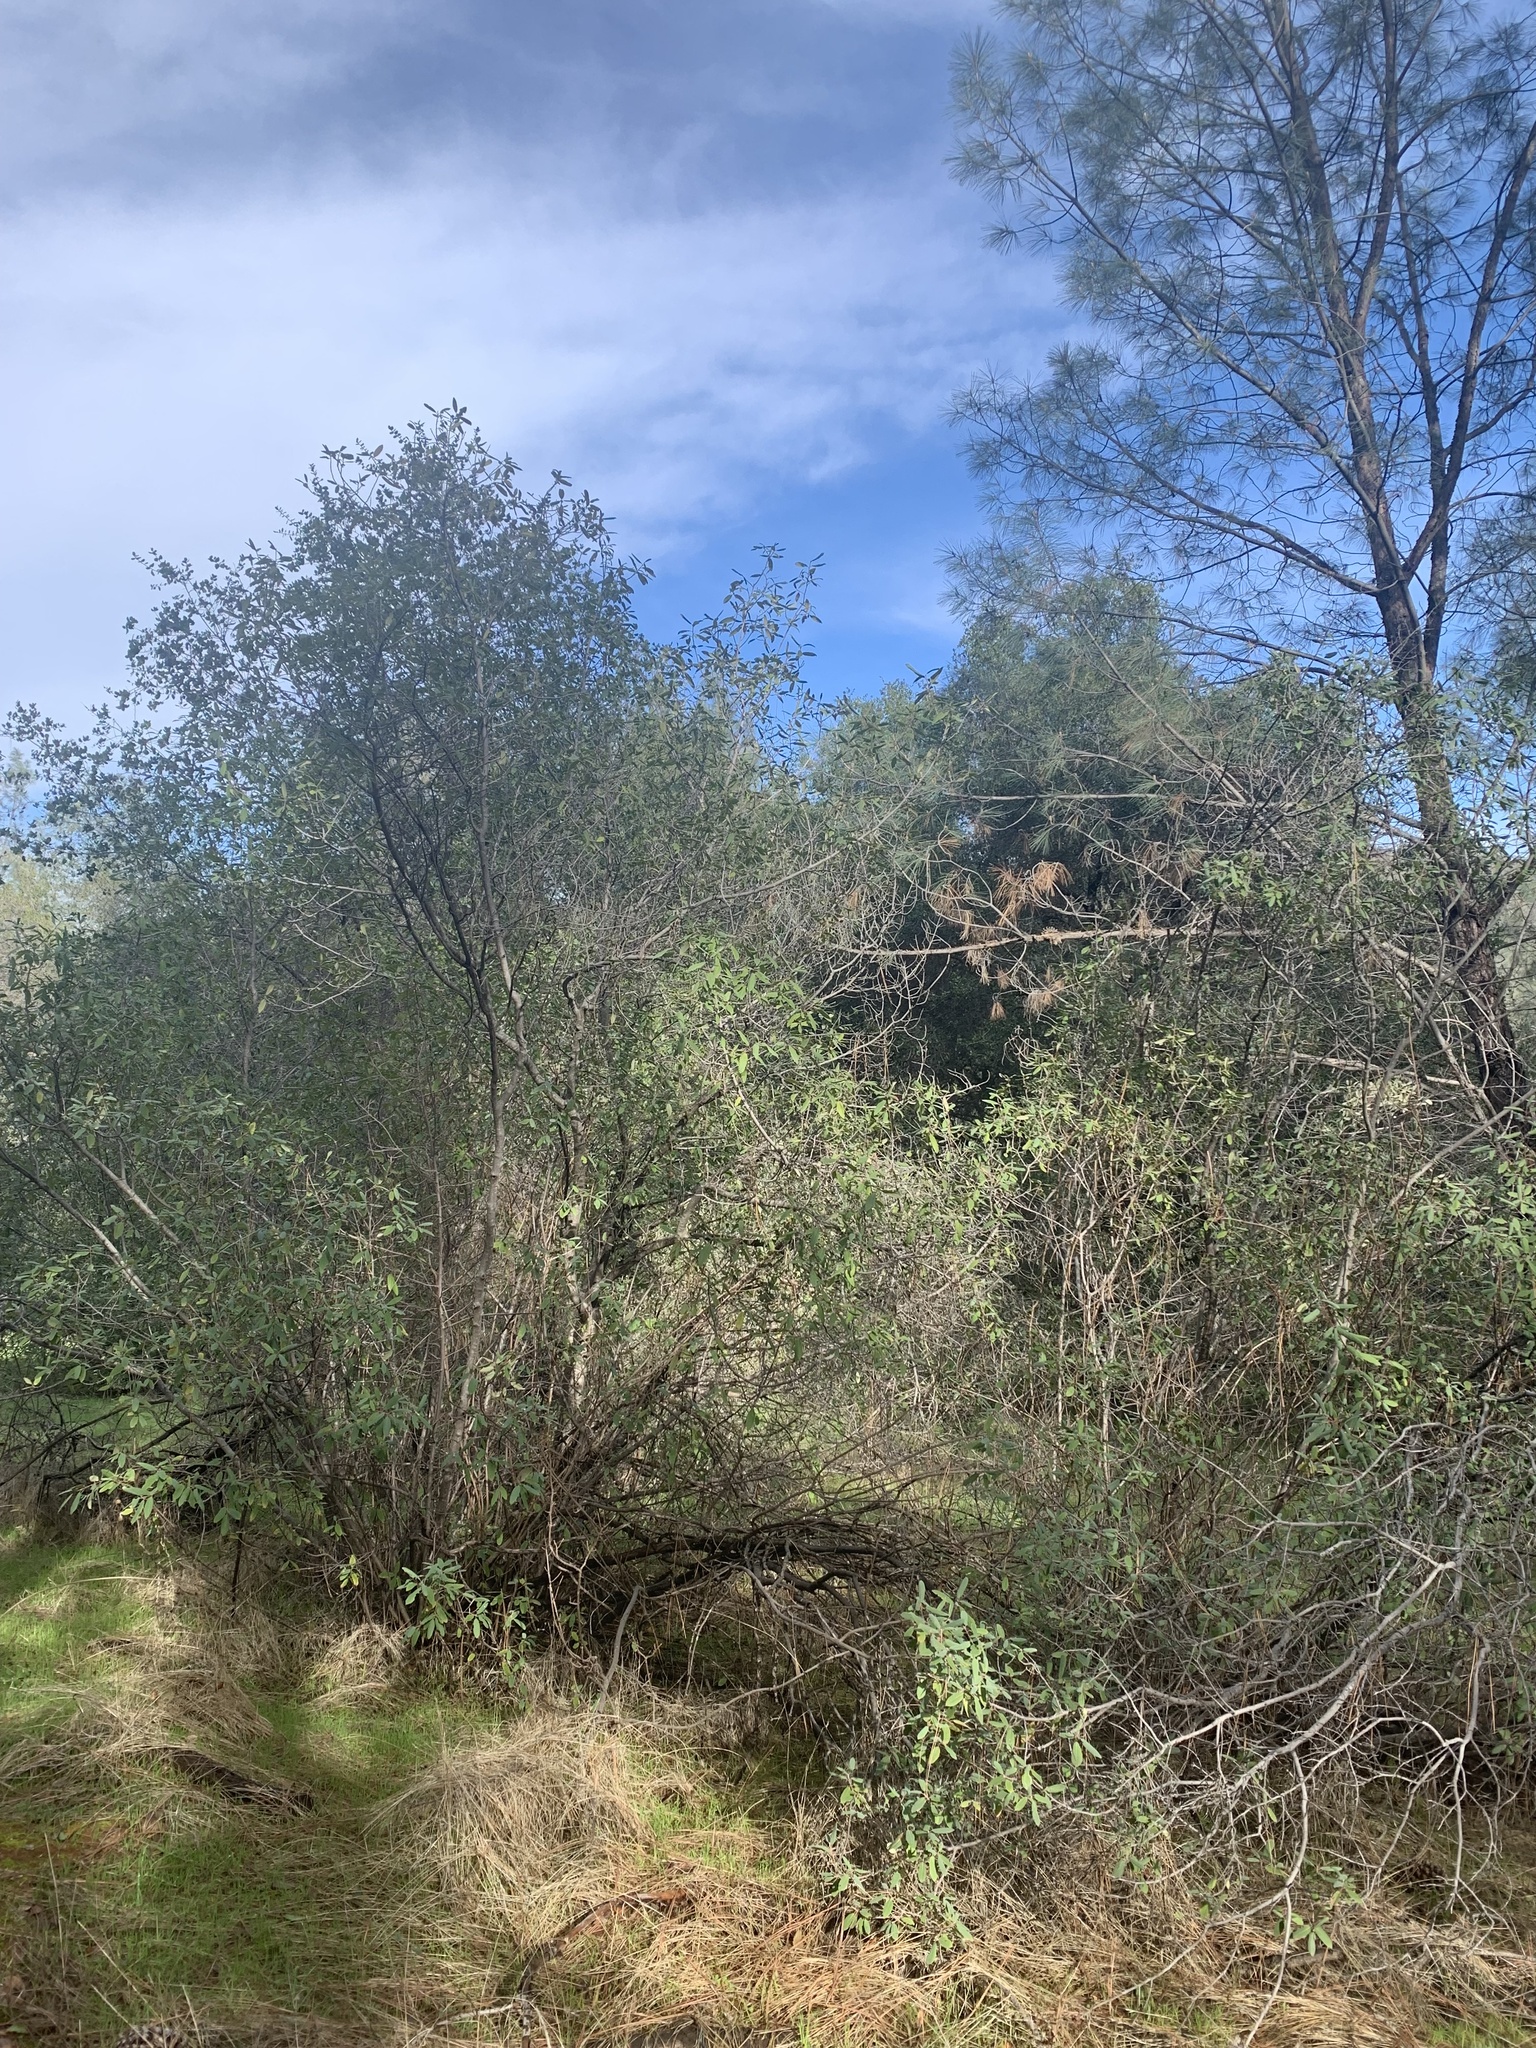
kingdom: Plantae
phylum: Tracheophyta
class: Magnoliopsida
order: Rosales
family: Rhamnaceae
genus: Frangula
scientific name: Frangula californica
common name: California buckthorn
